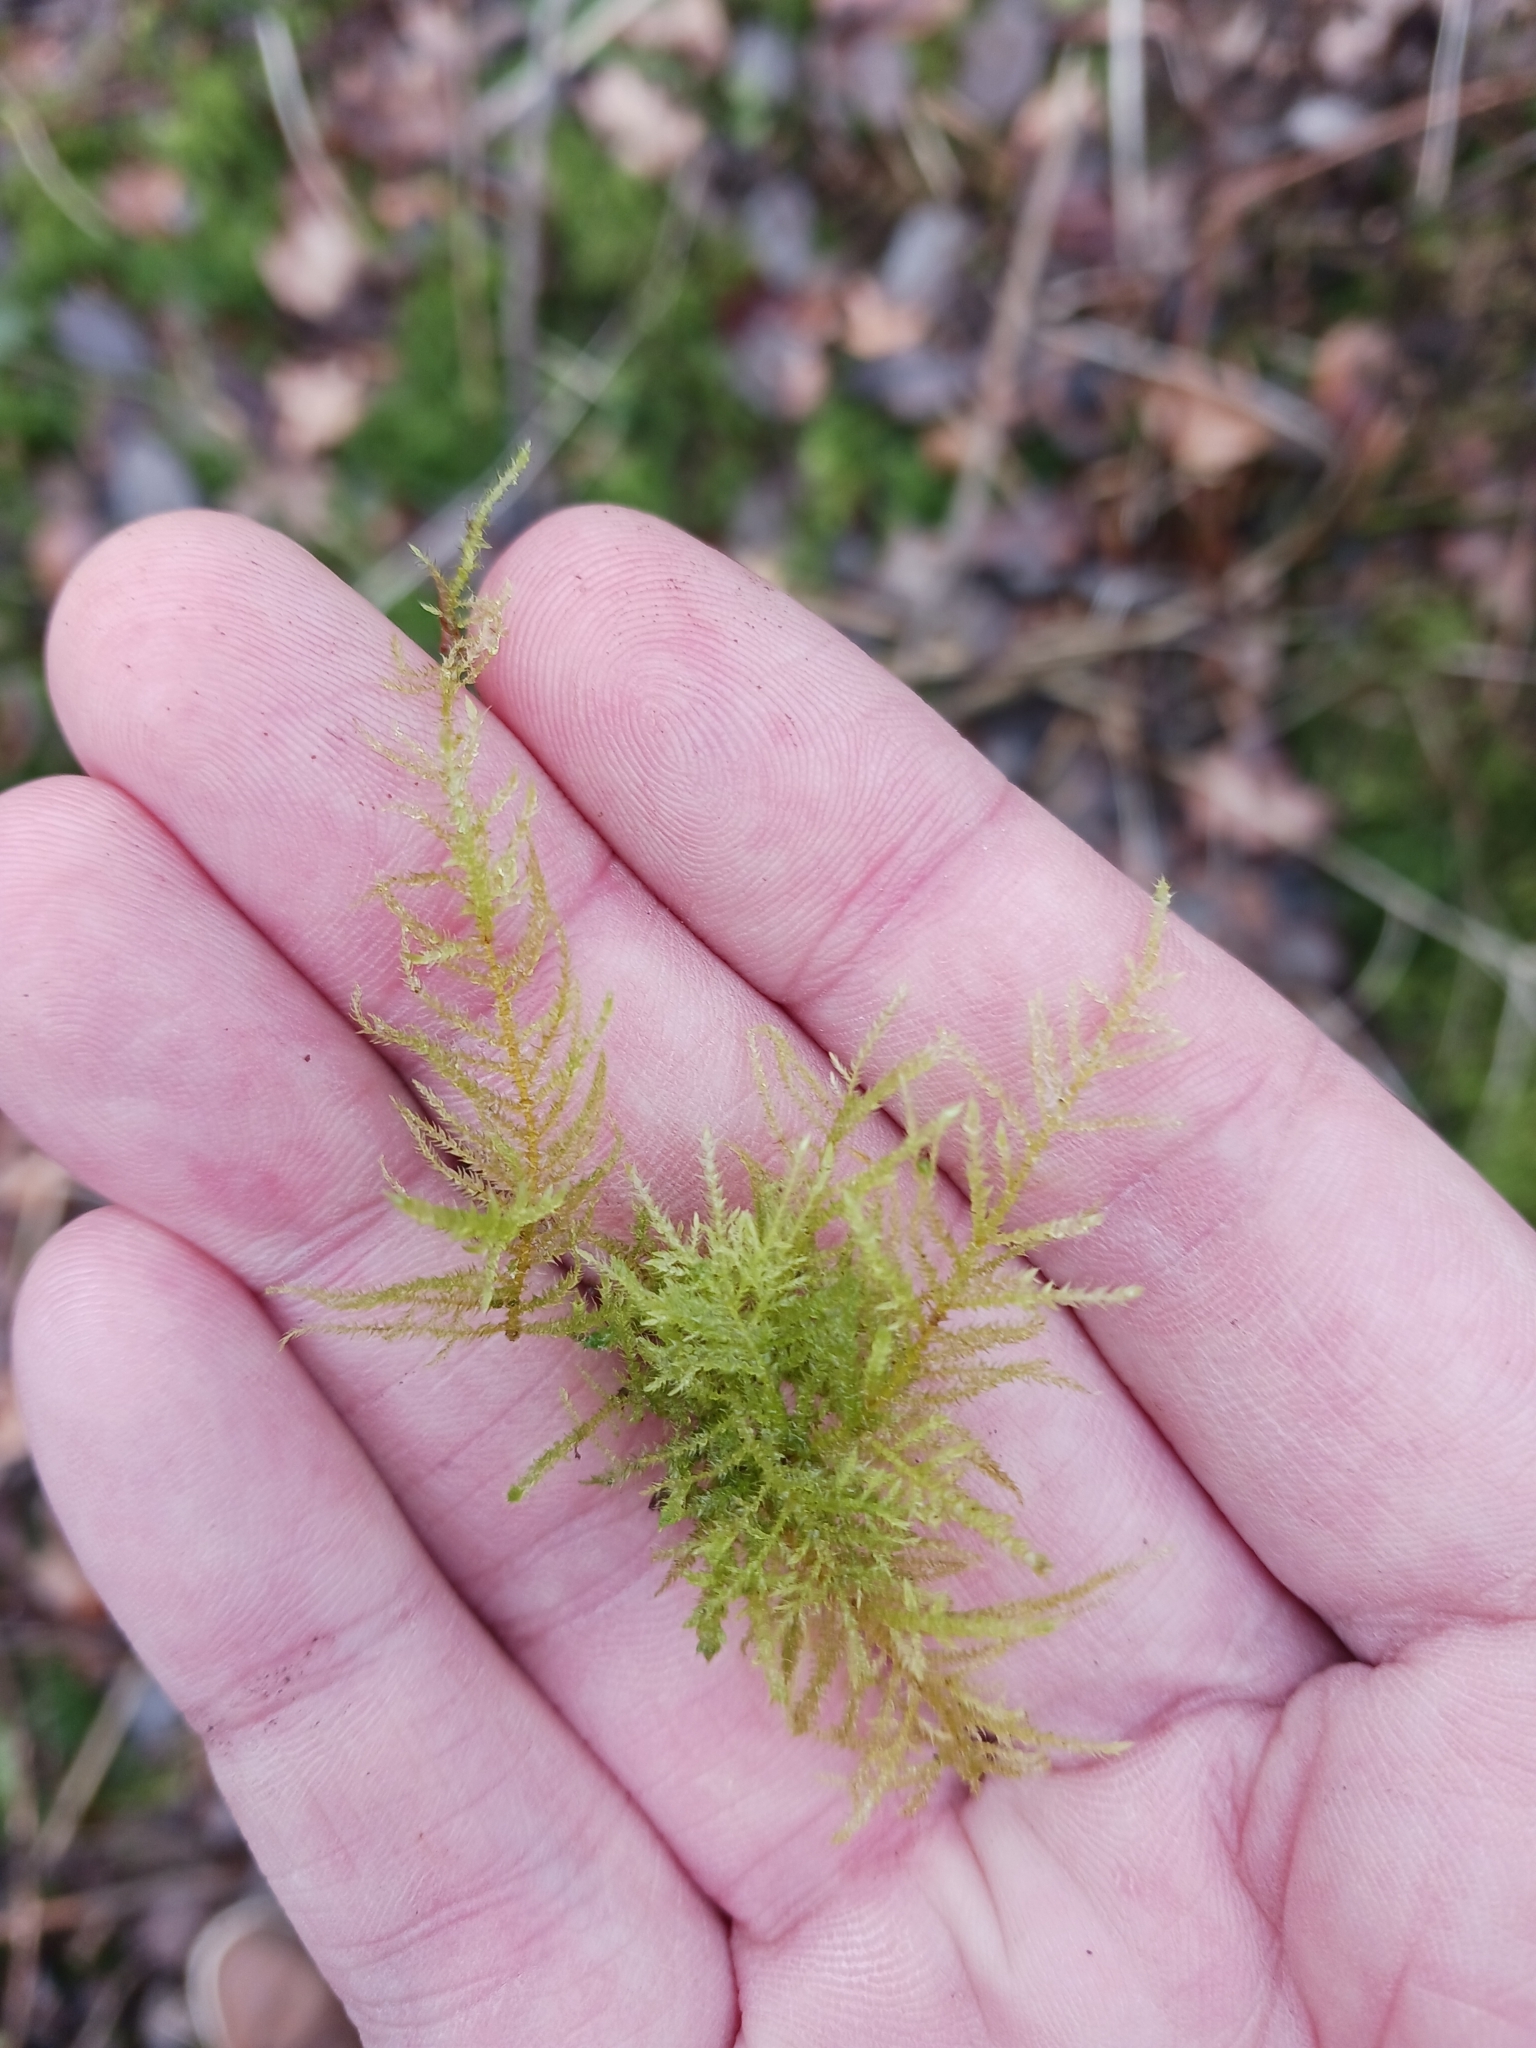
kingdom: Plantae
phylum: Bryophyta
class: Bryopsida
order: Hypnales
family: Brachytheciaceae
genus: Kindbergia
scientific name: Kindbergia praelonga
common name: Slender beaked moss
